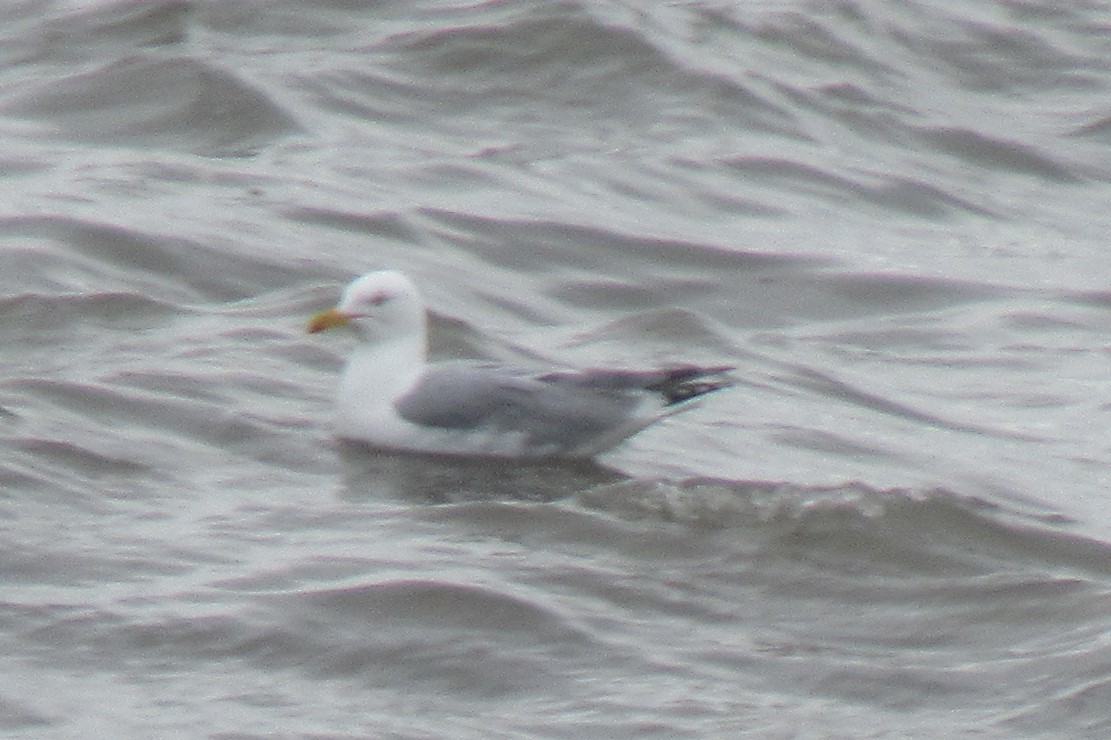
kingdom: Animalia
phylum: Chordata
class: Aves
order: Charadriiformes
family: Laridae
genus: Larus
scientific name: Larus argentatus
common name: Herring gull
